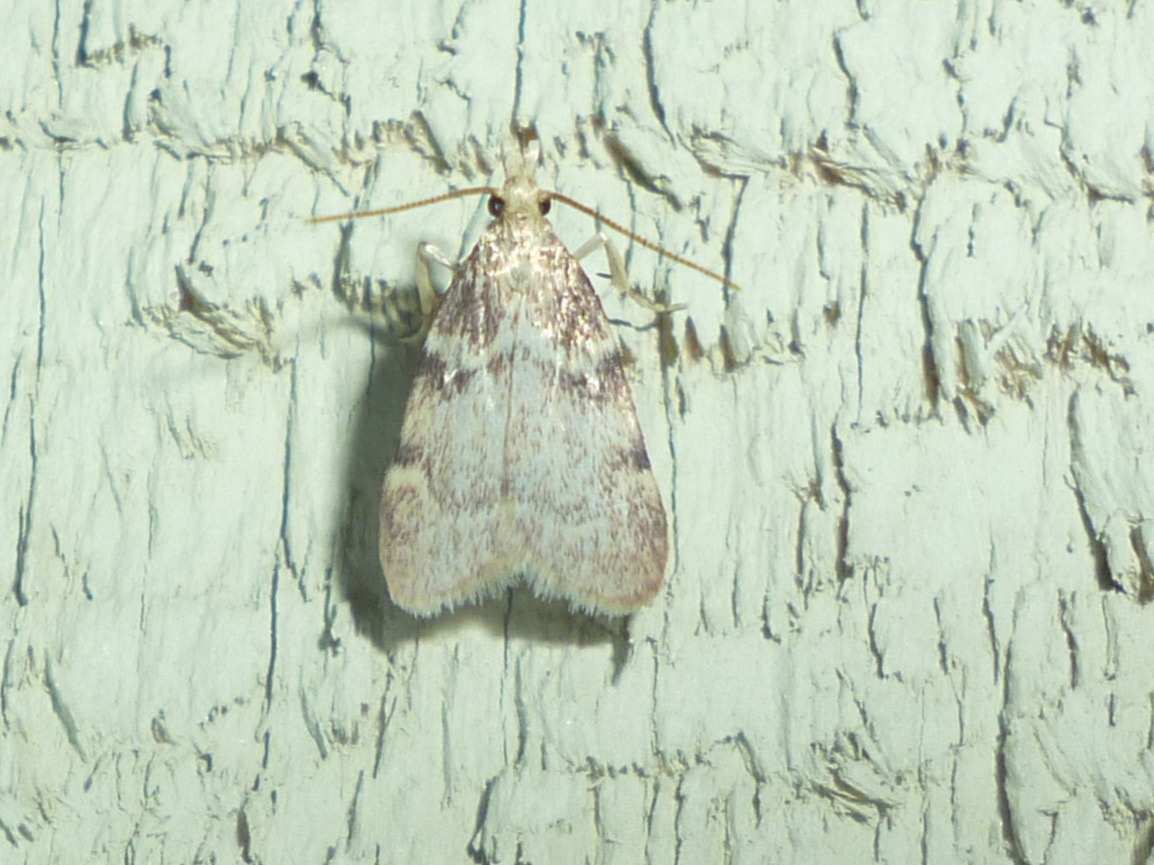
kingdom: Animalia
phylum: Arthropoda
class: Insecta
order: Lepidoptera
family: Pyralidae
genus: Acallis
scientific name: Acallis alticolalis
